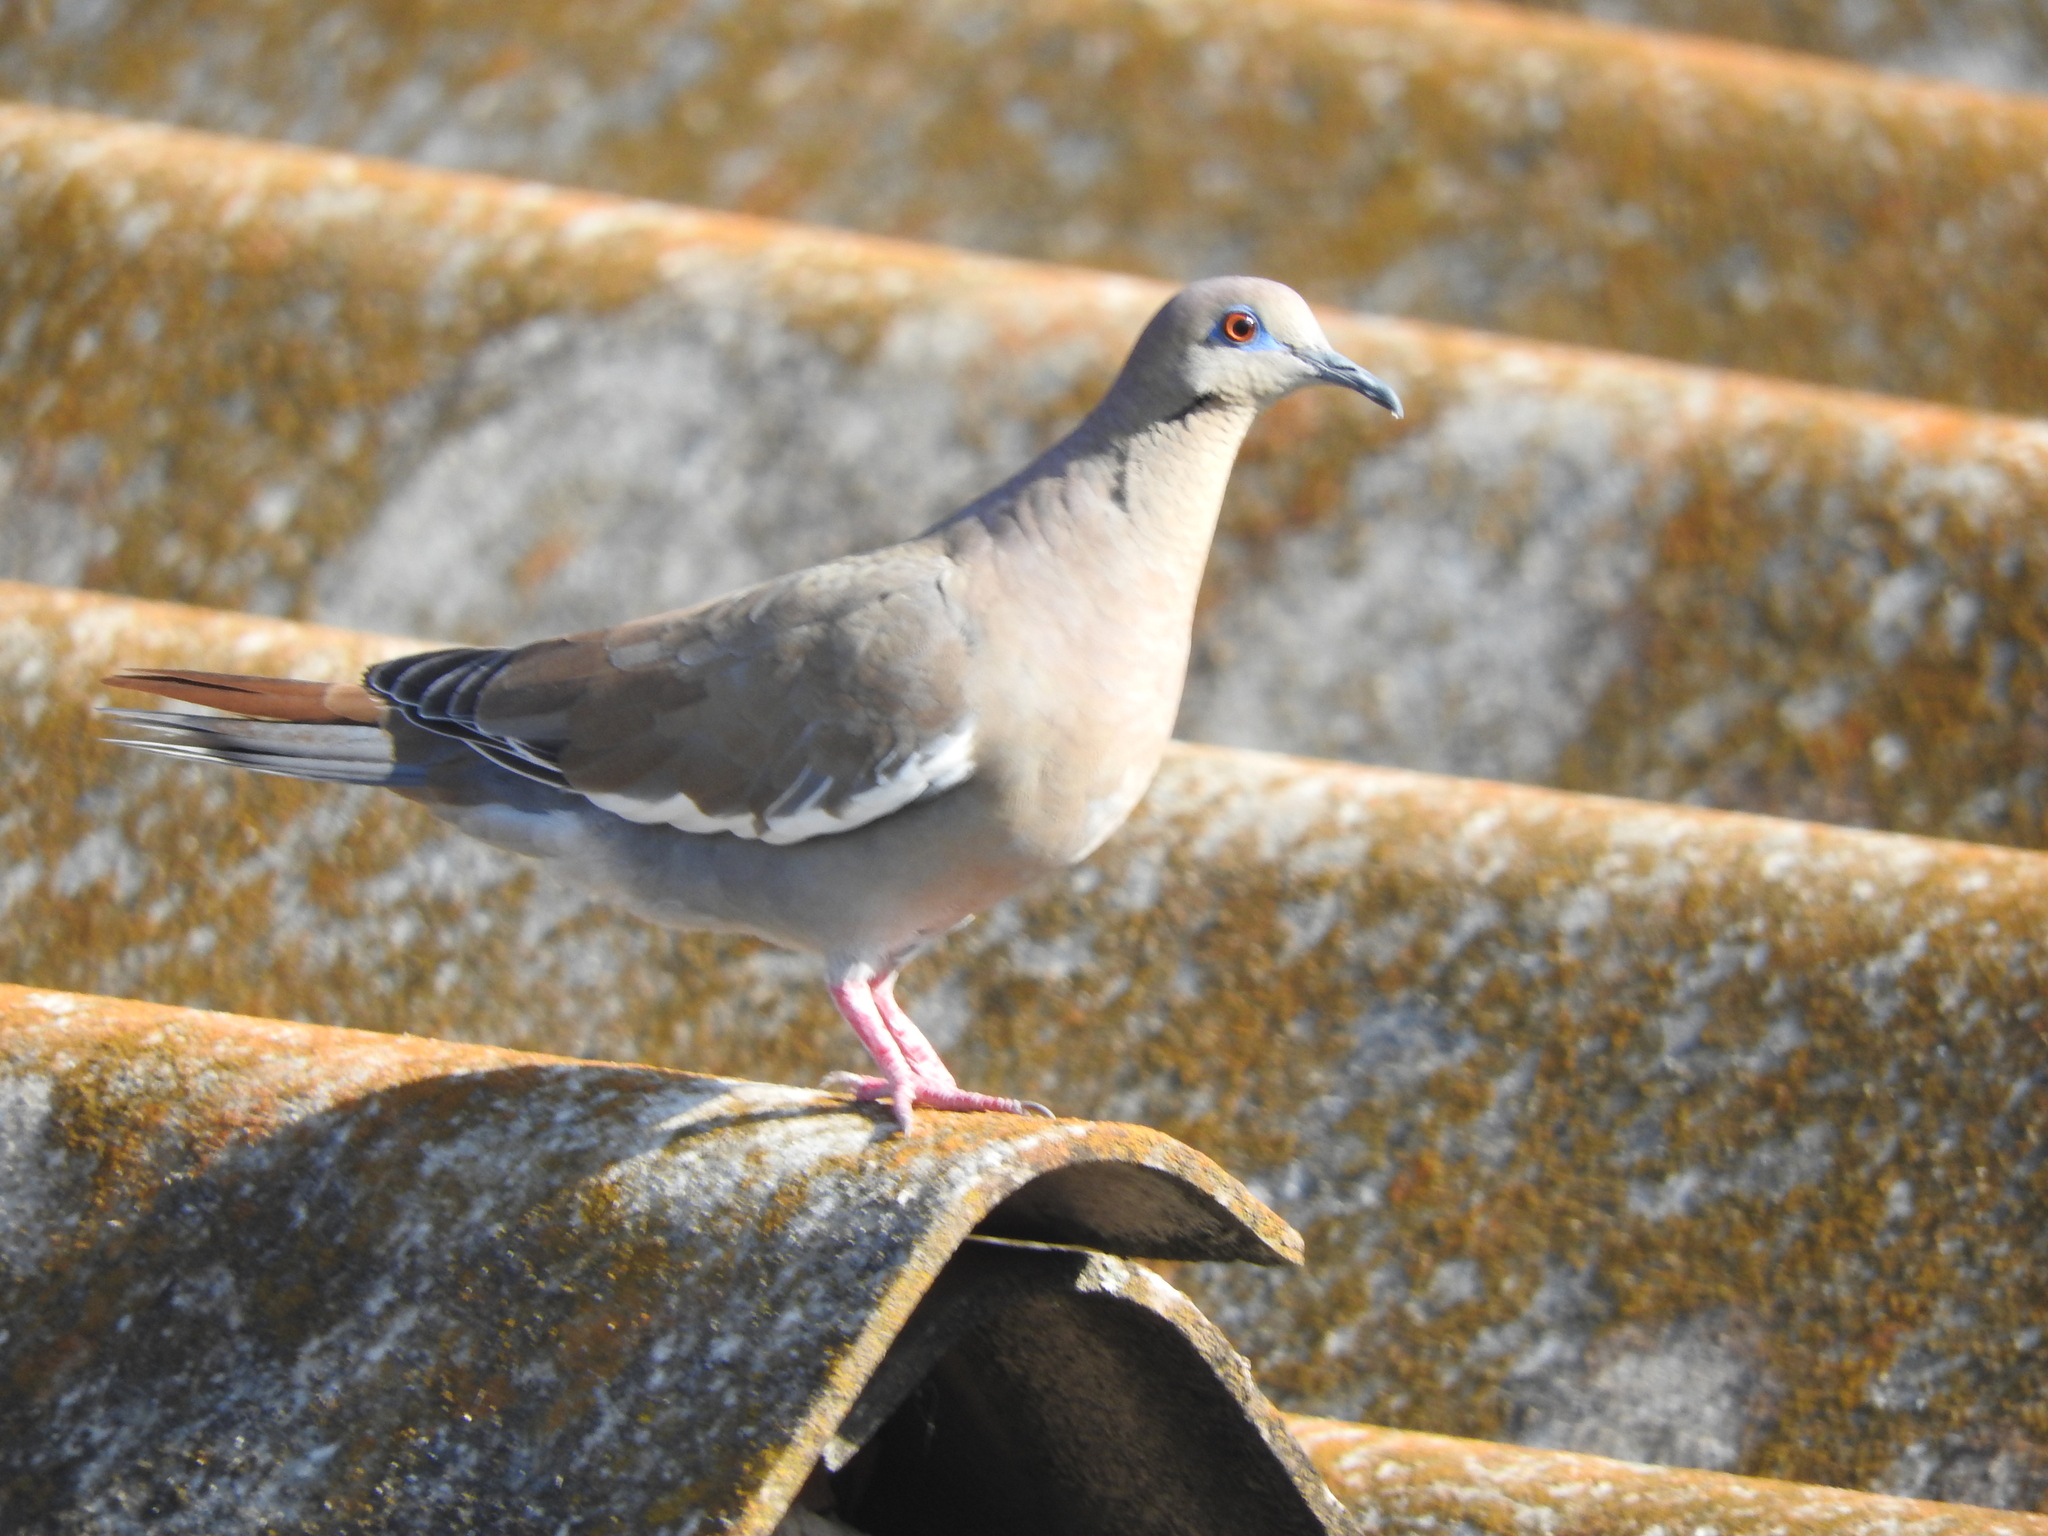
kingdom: Animalia
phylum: Chordata
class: Aves
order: Columbiformes
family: Columbidae
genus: Zenaida
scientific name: Zenaida asiatica
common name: White-winged dove
